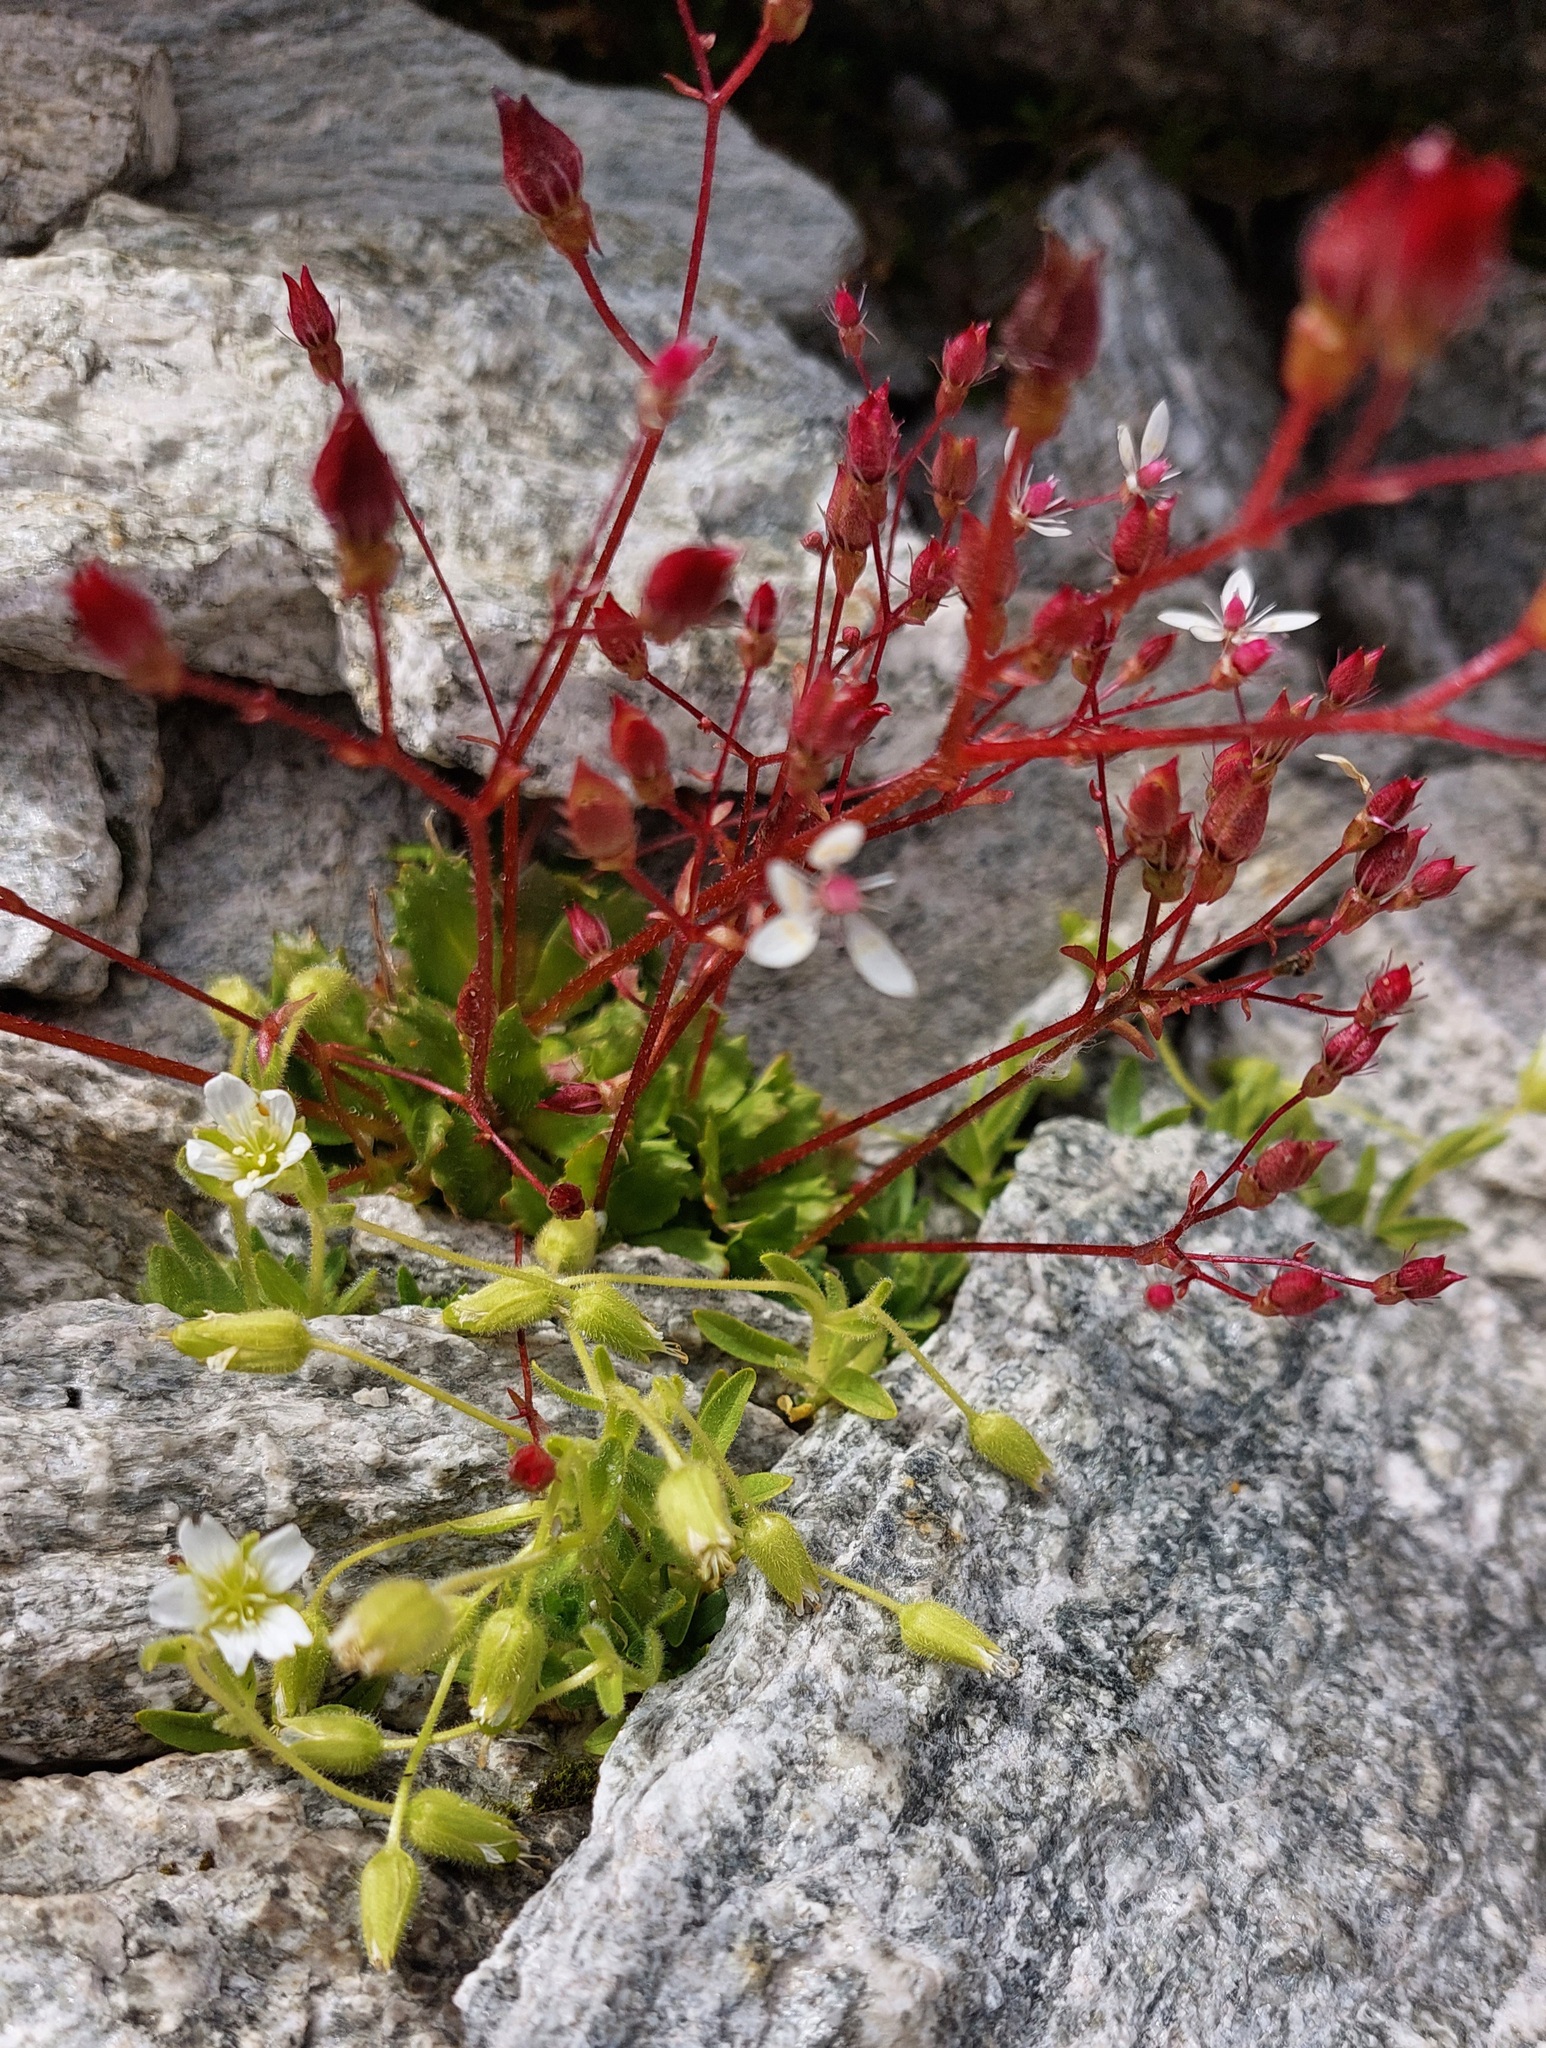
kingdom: Plantae
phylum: Tracheophyta
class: Magnoliopsida
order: Saxifragales
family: Saxifragaceae
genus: Micranthes
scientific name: Micranthes stellaris
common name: Starry saxifrage
